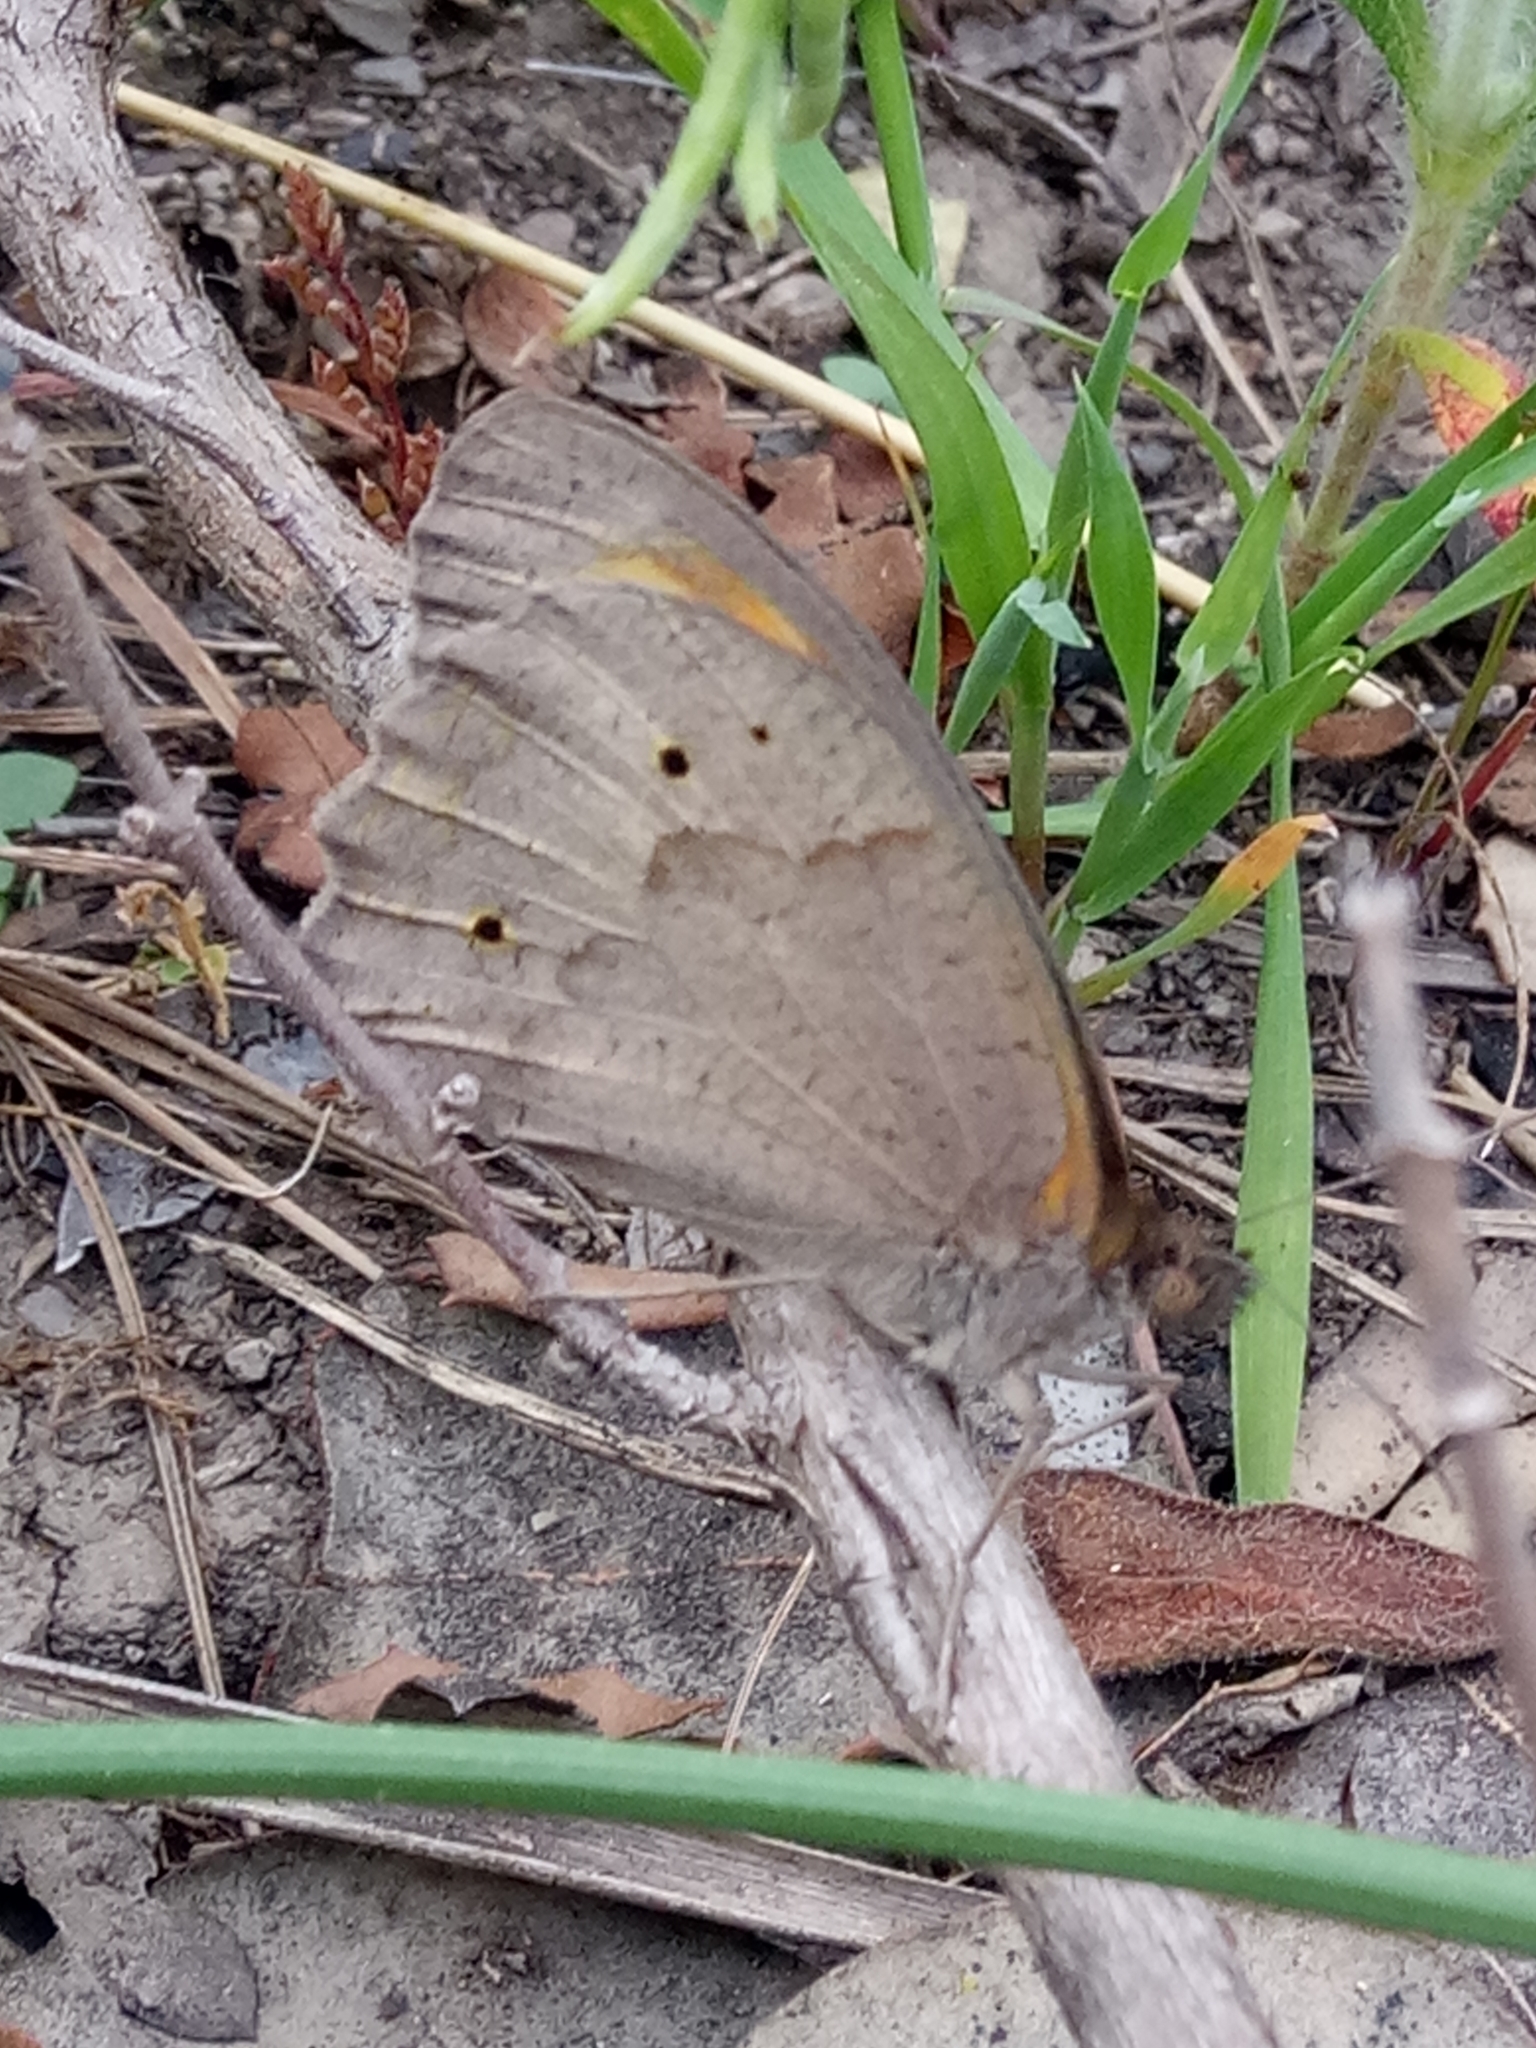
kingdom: Animalia
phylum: Arthropoda
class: Insecta
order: Lepidoptera
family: Nymphalidae
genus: Maniola
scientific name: Maniola jurtina
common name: Meadow brown
